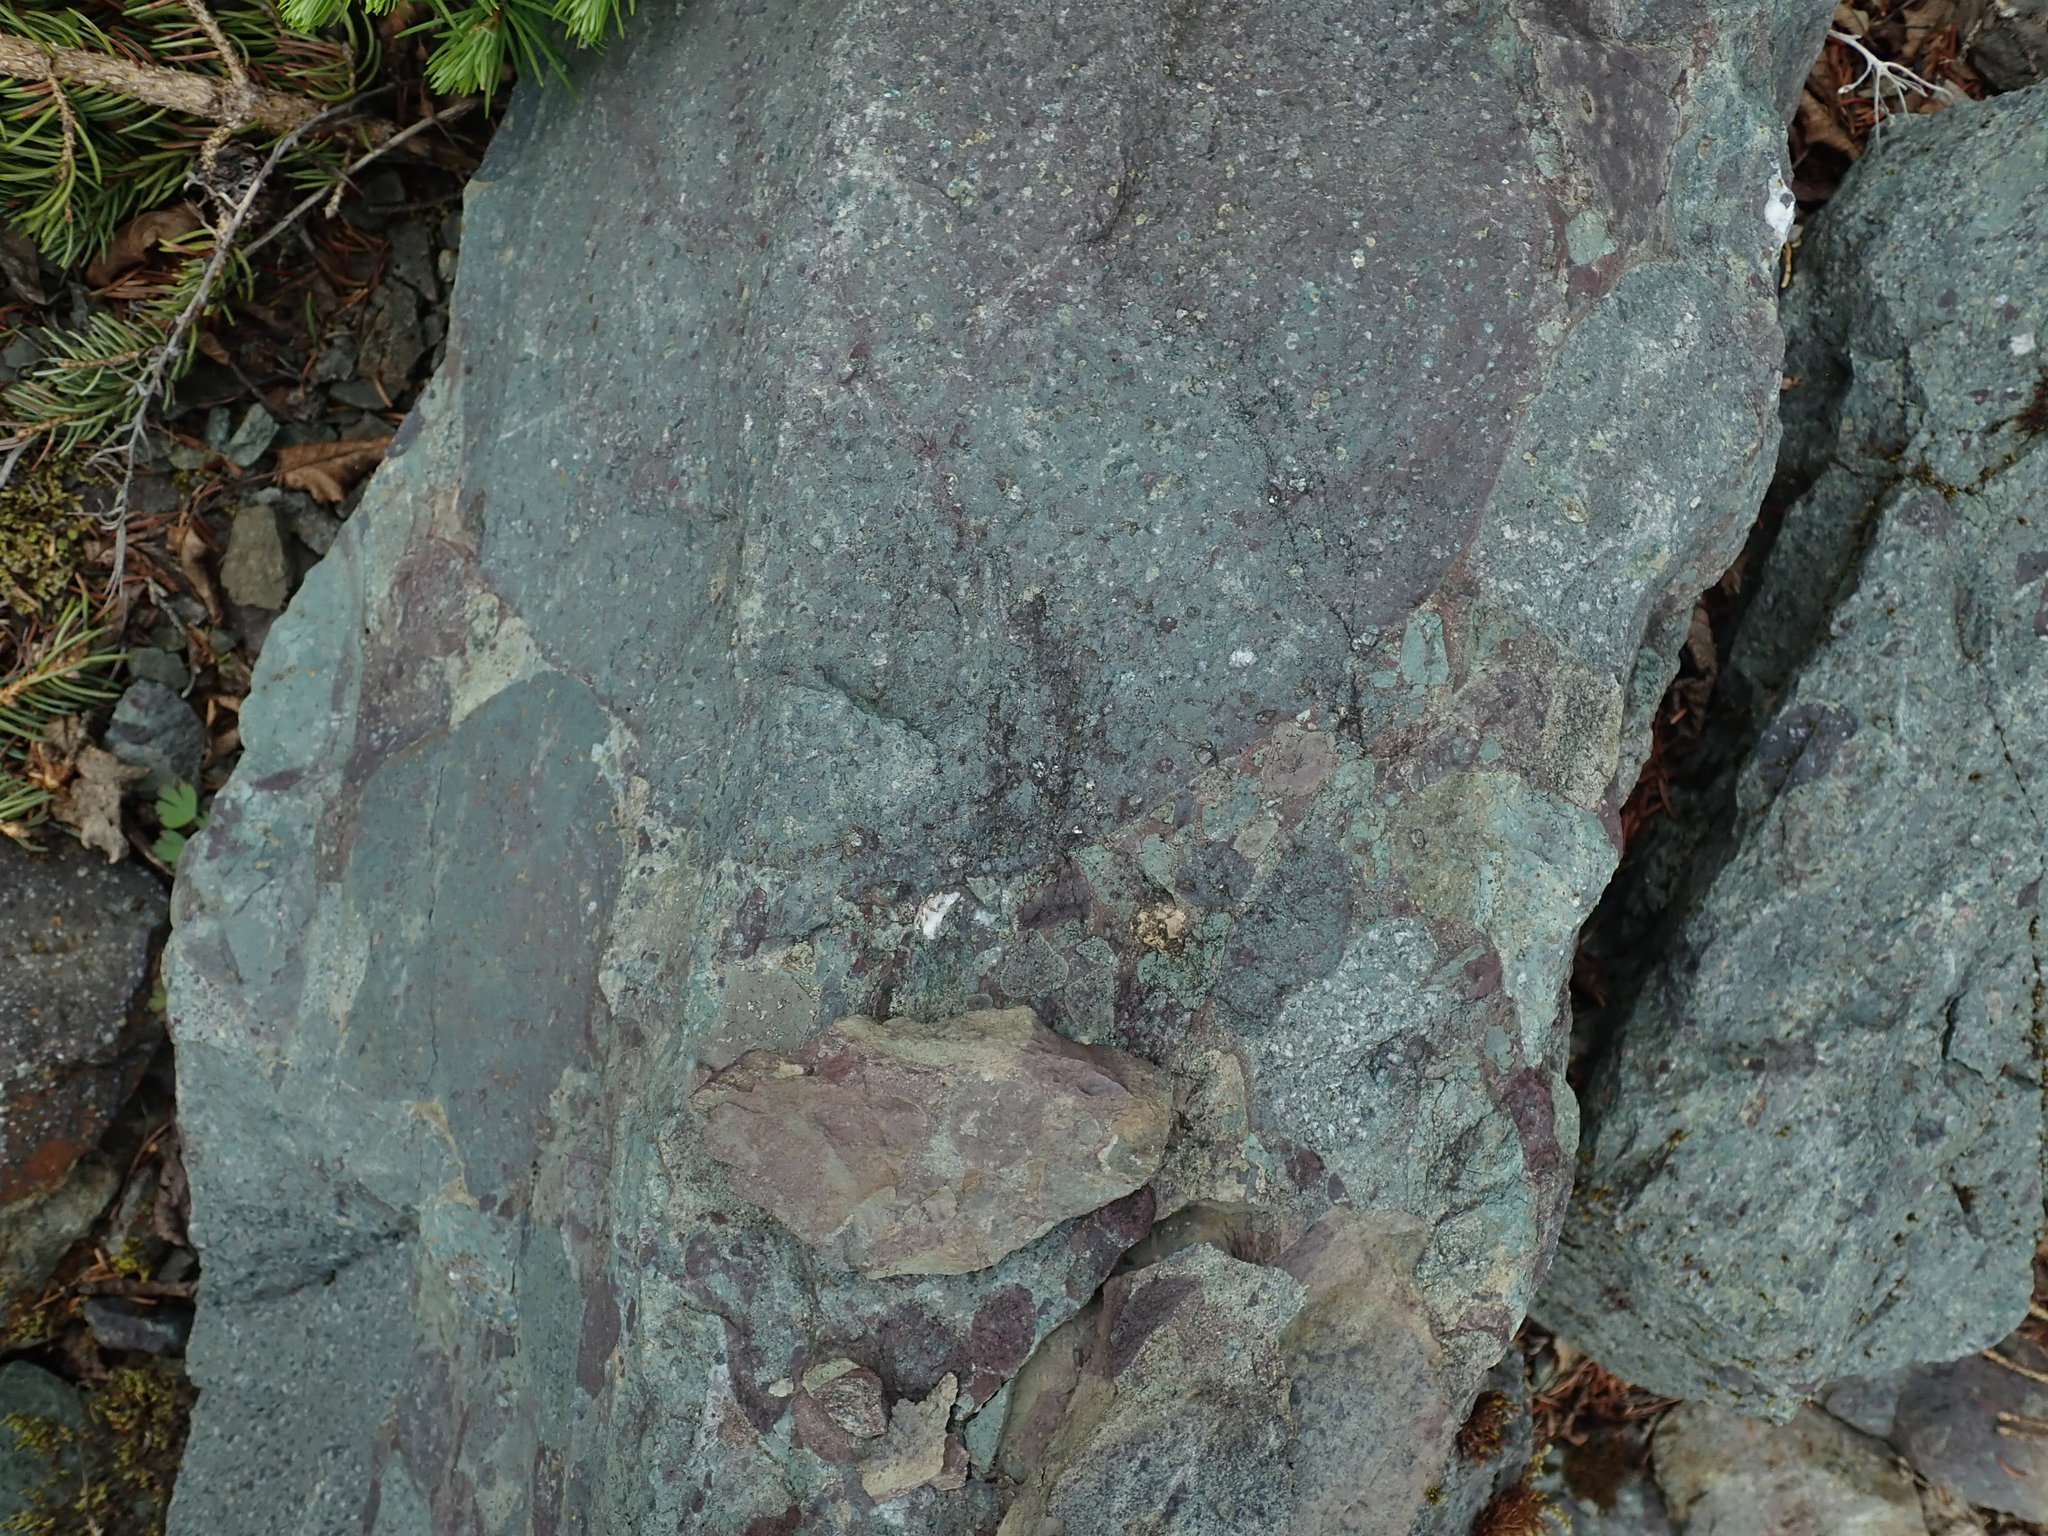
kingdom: Fungi
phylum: Ascomycota
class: Lecanoromycetes
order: Peltigerales
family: Peltigeraceae
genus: Peltigera
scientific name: Peltigera venosa
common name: Pixie gowns lichen
